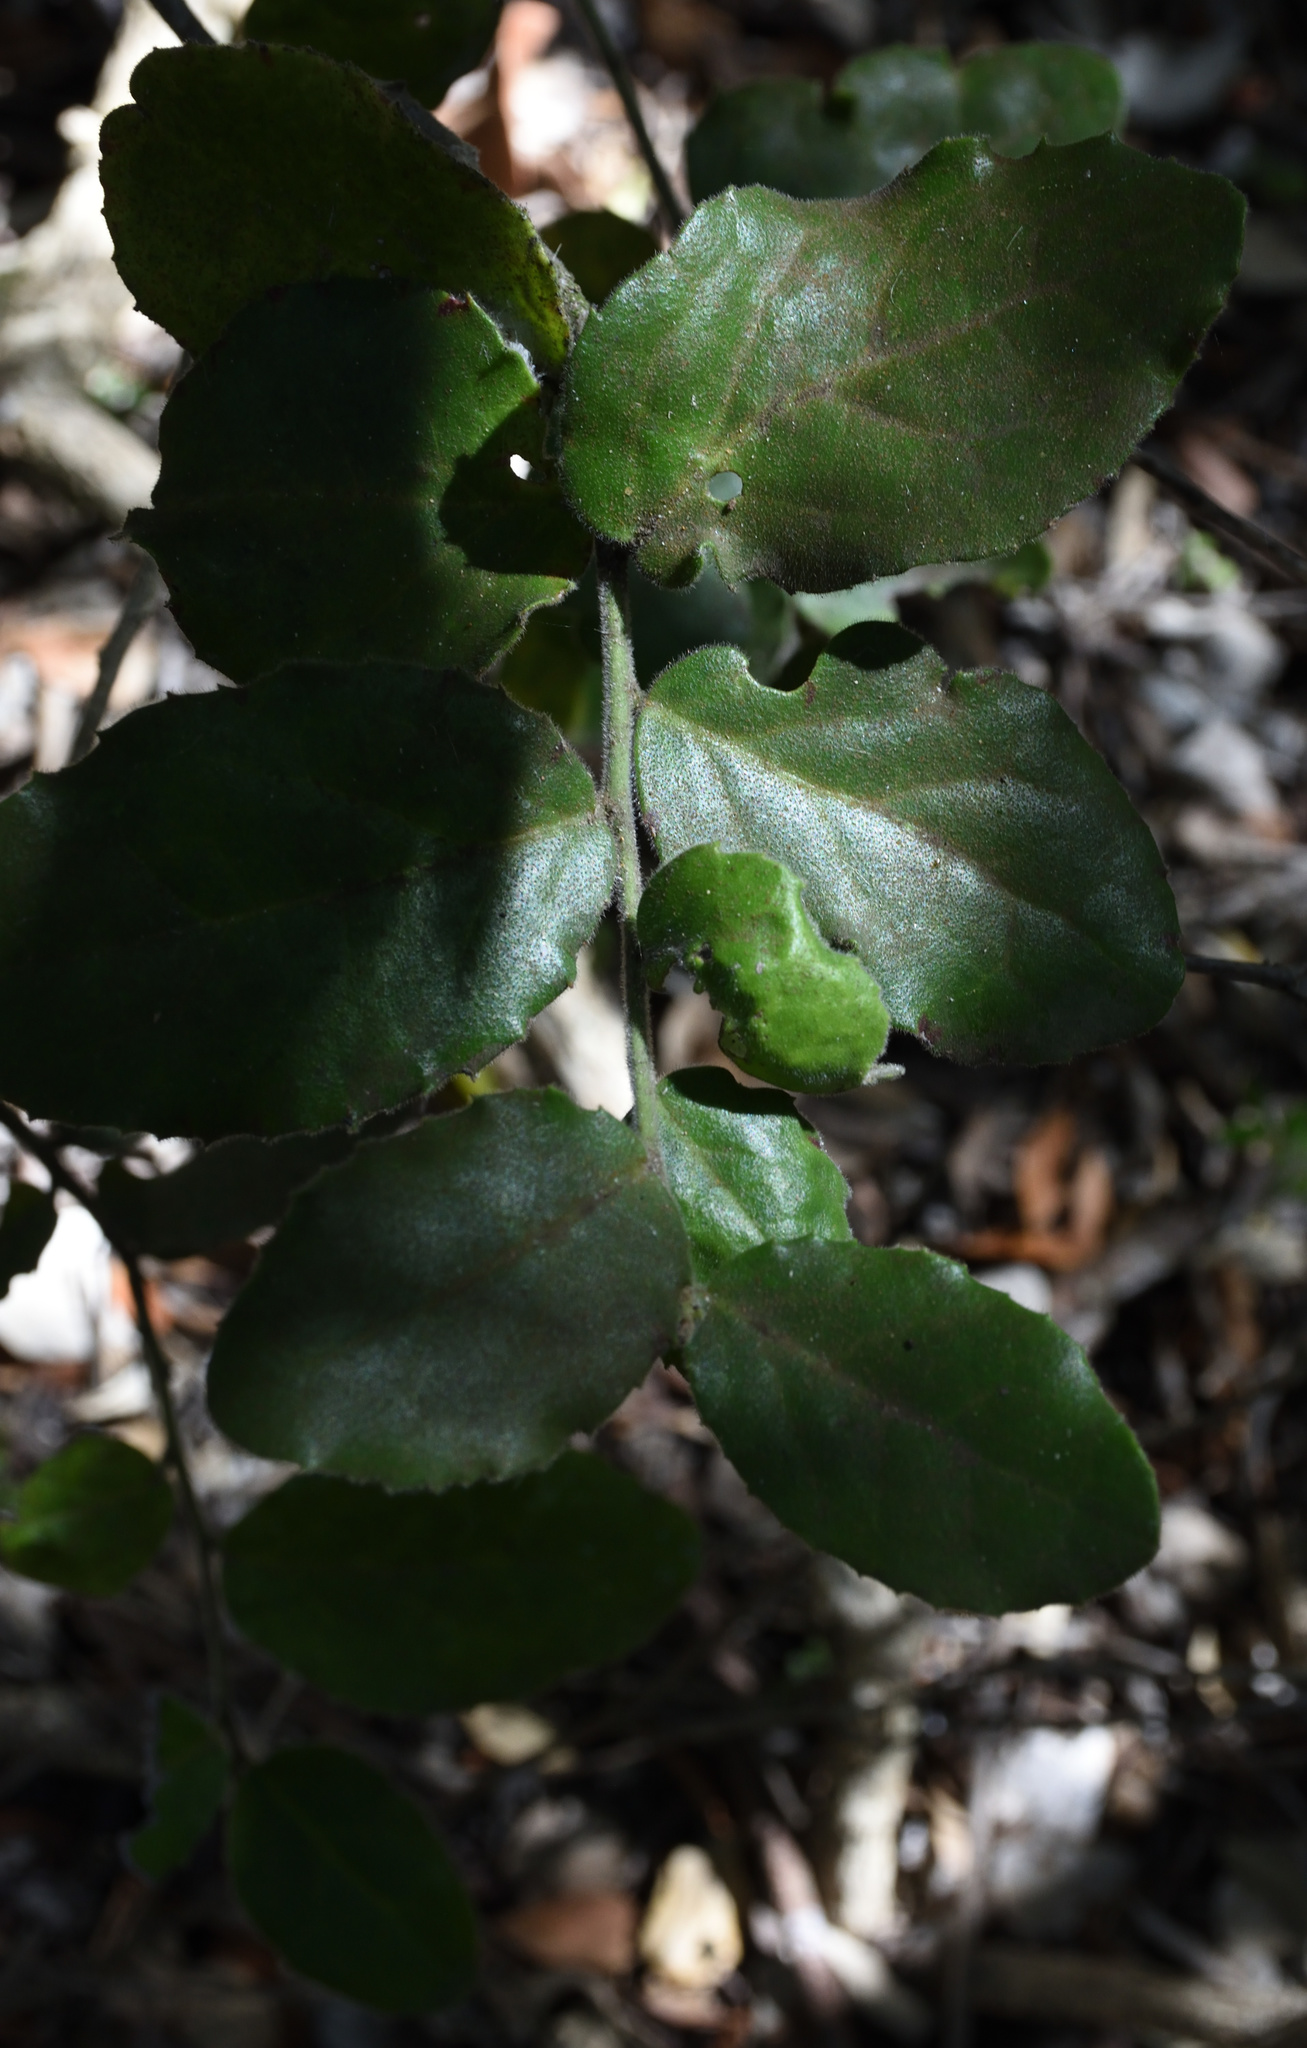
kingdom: Plantae
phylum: Tracheophyta
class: Magnoliopsida
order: Celastrales
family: Celastraceae
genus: Mystroxylon
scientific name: Mystroxylon aethiopicum
